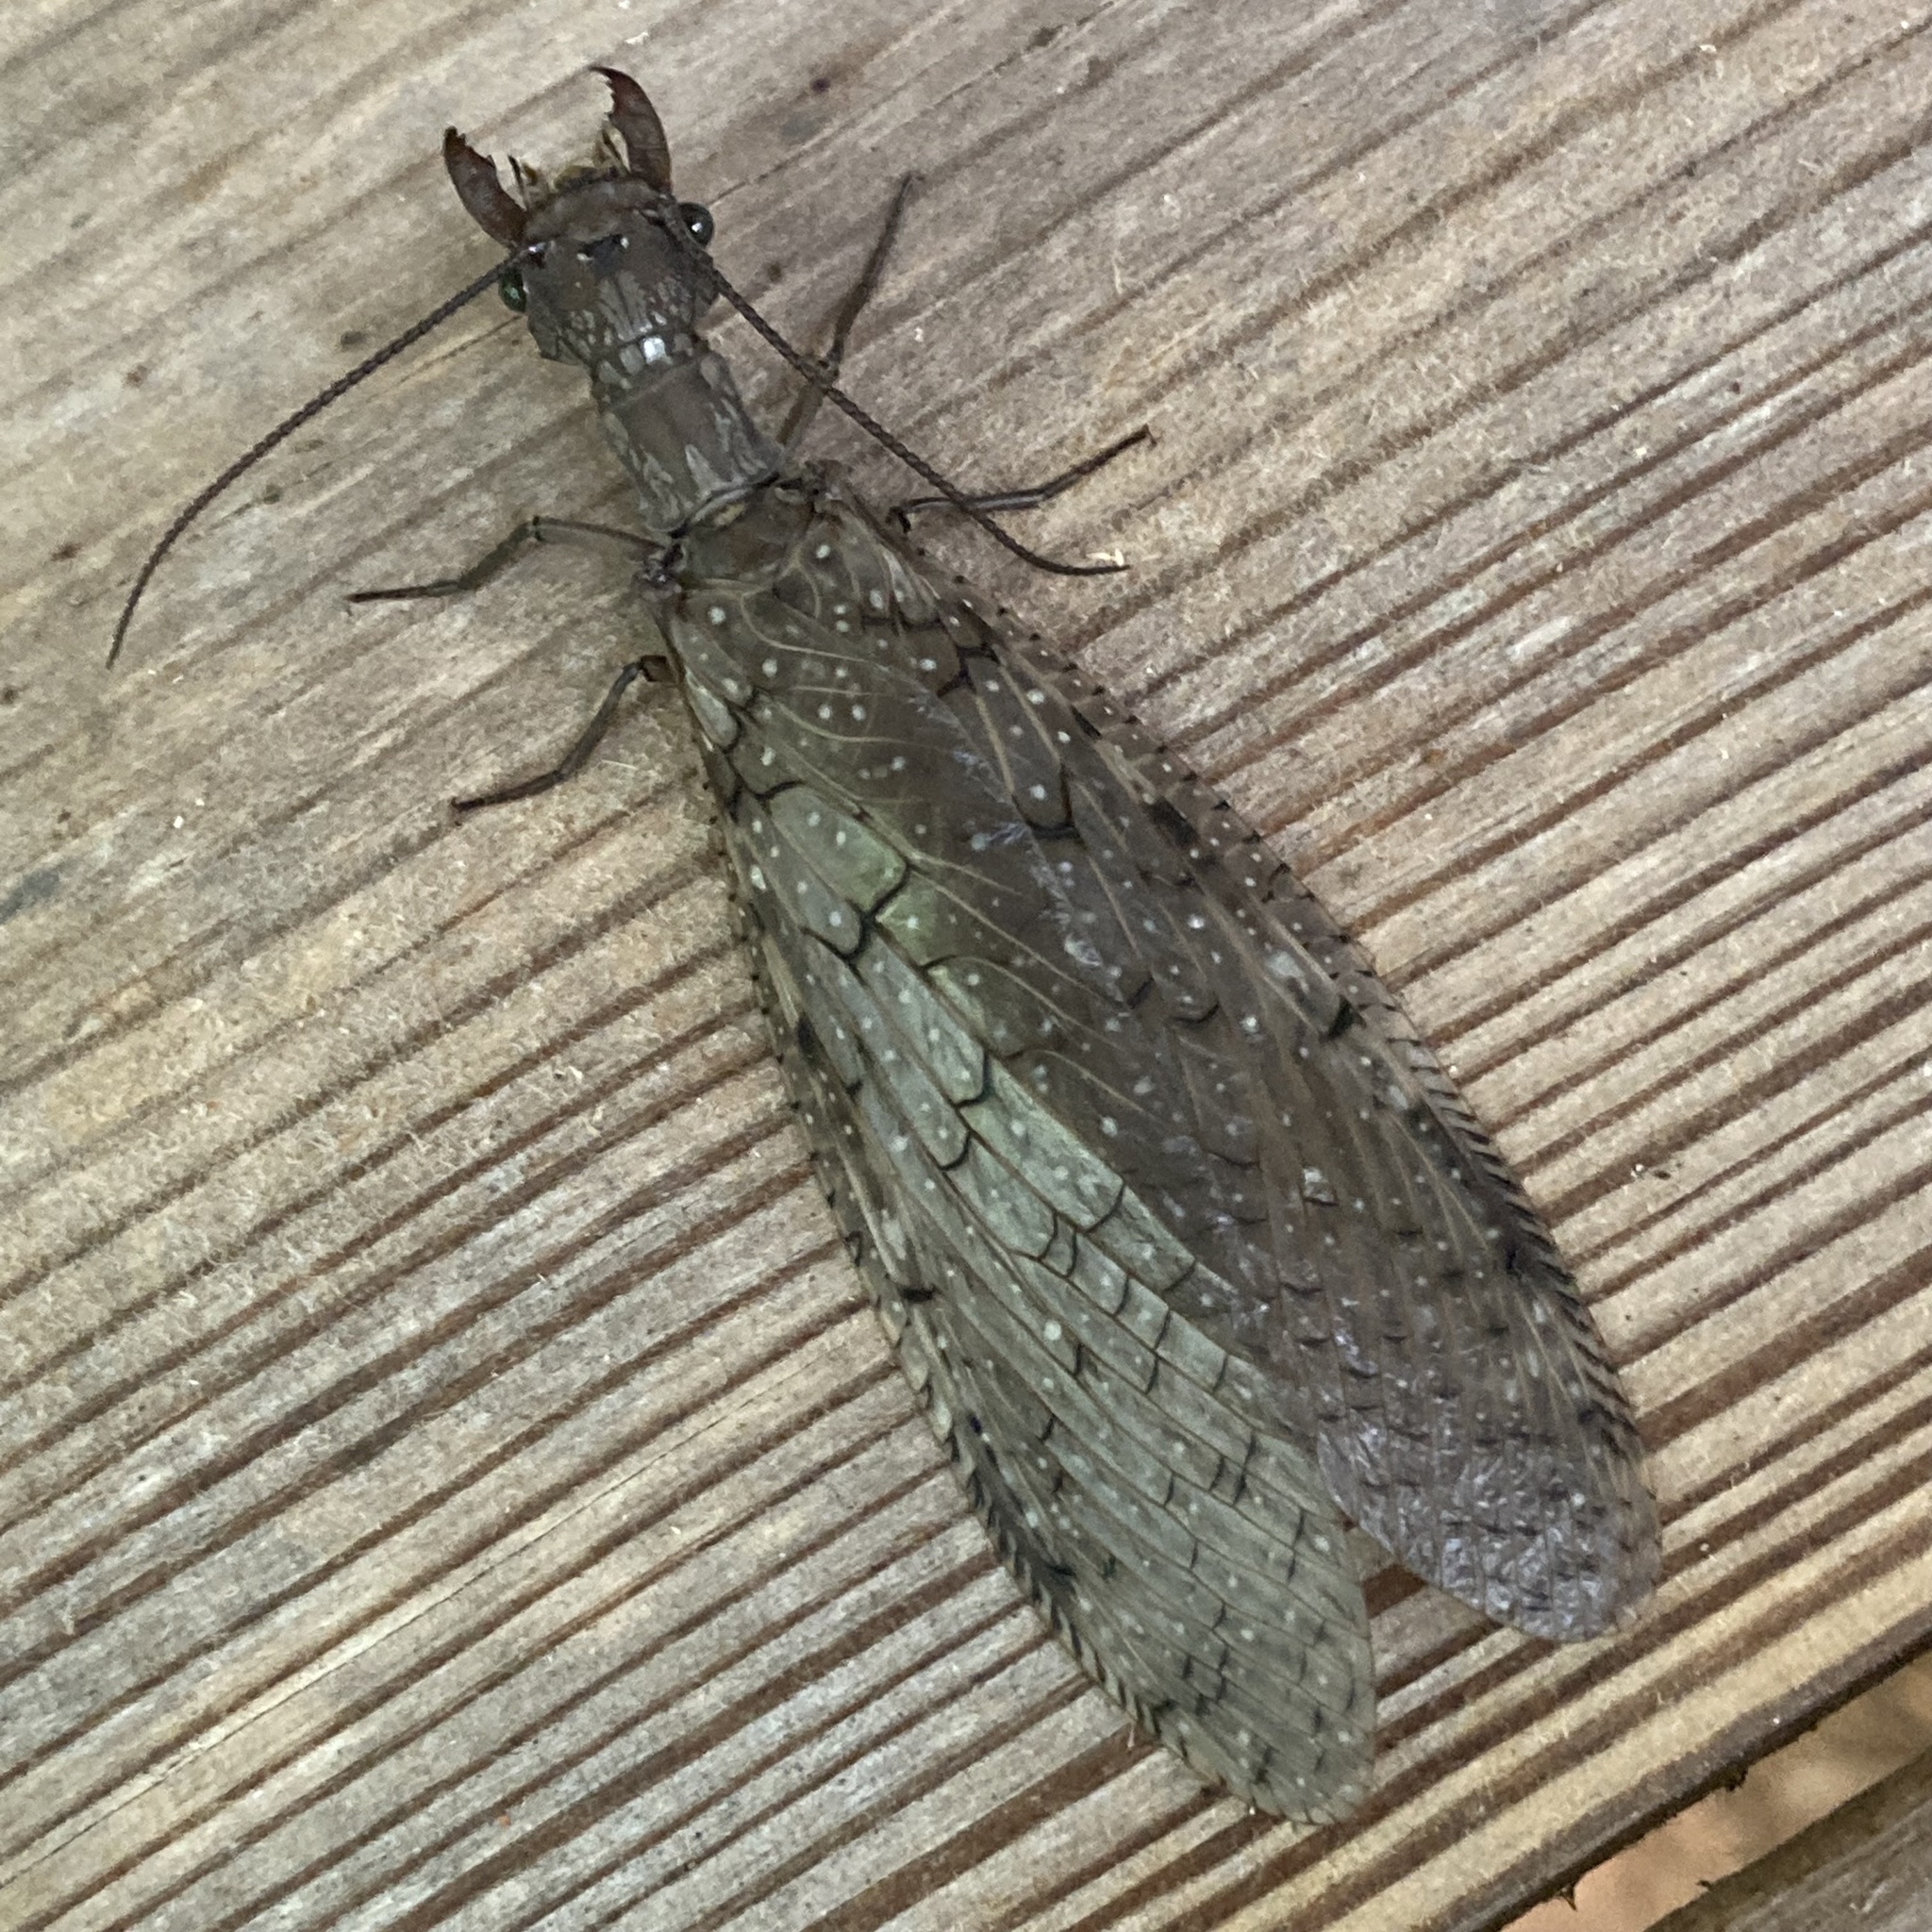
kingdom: Animalia
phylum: Arthropoda
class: Insecta
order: Megaloptera
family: Corydalidae
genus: Corydalus
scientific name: Corydalus cornutus
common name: Dobsonfly
